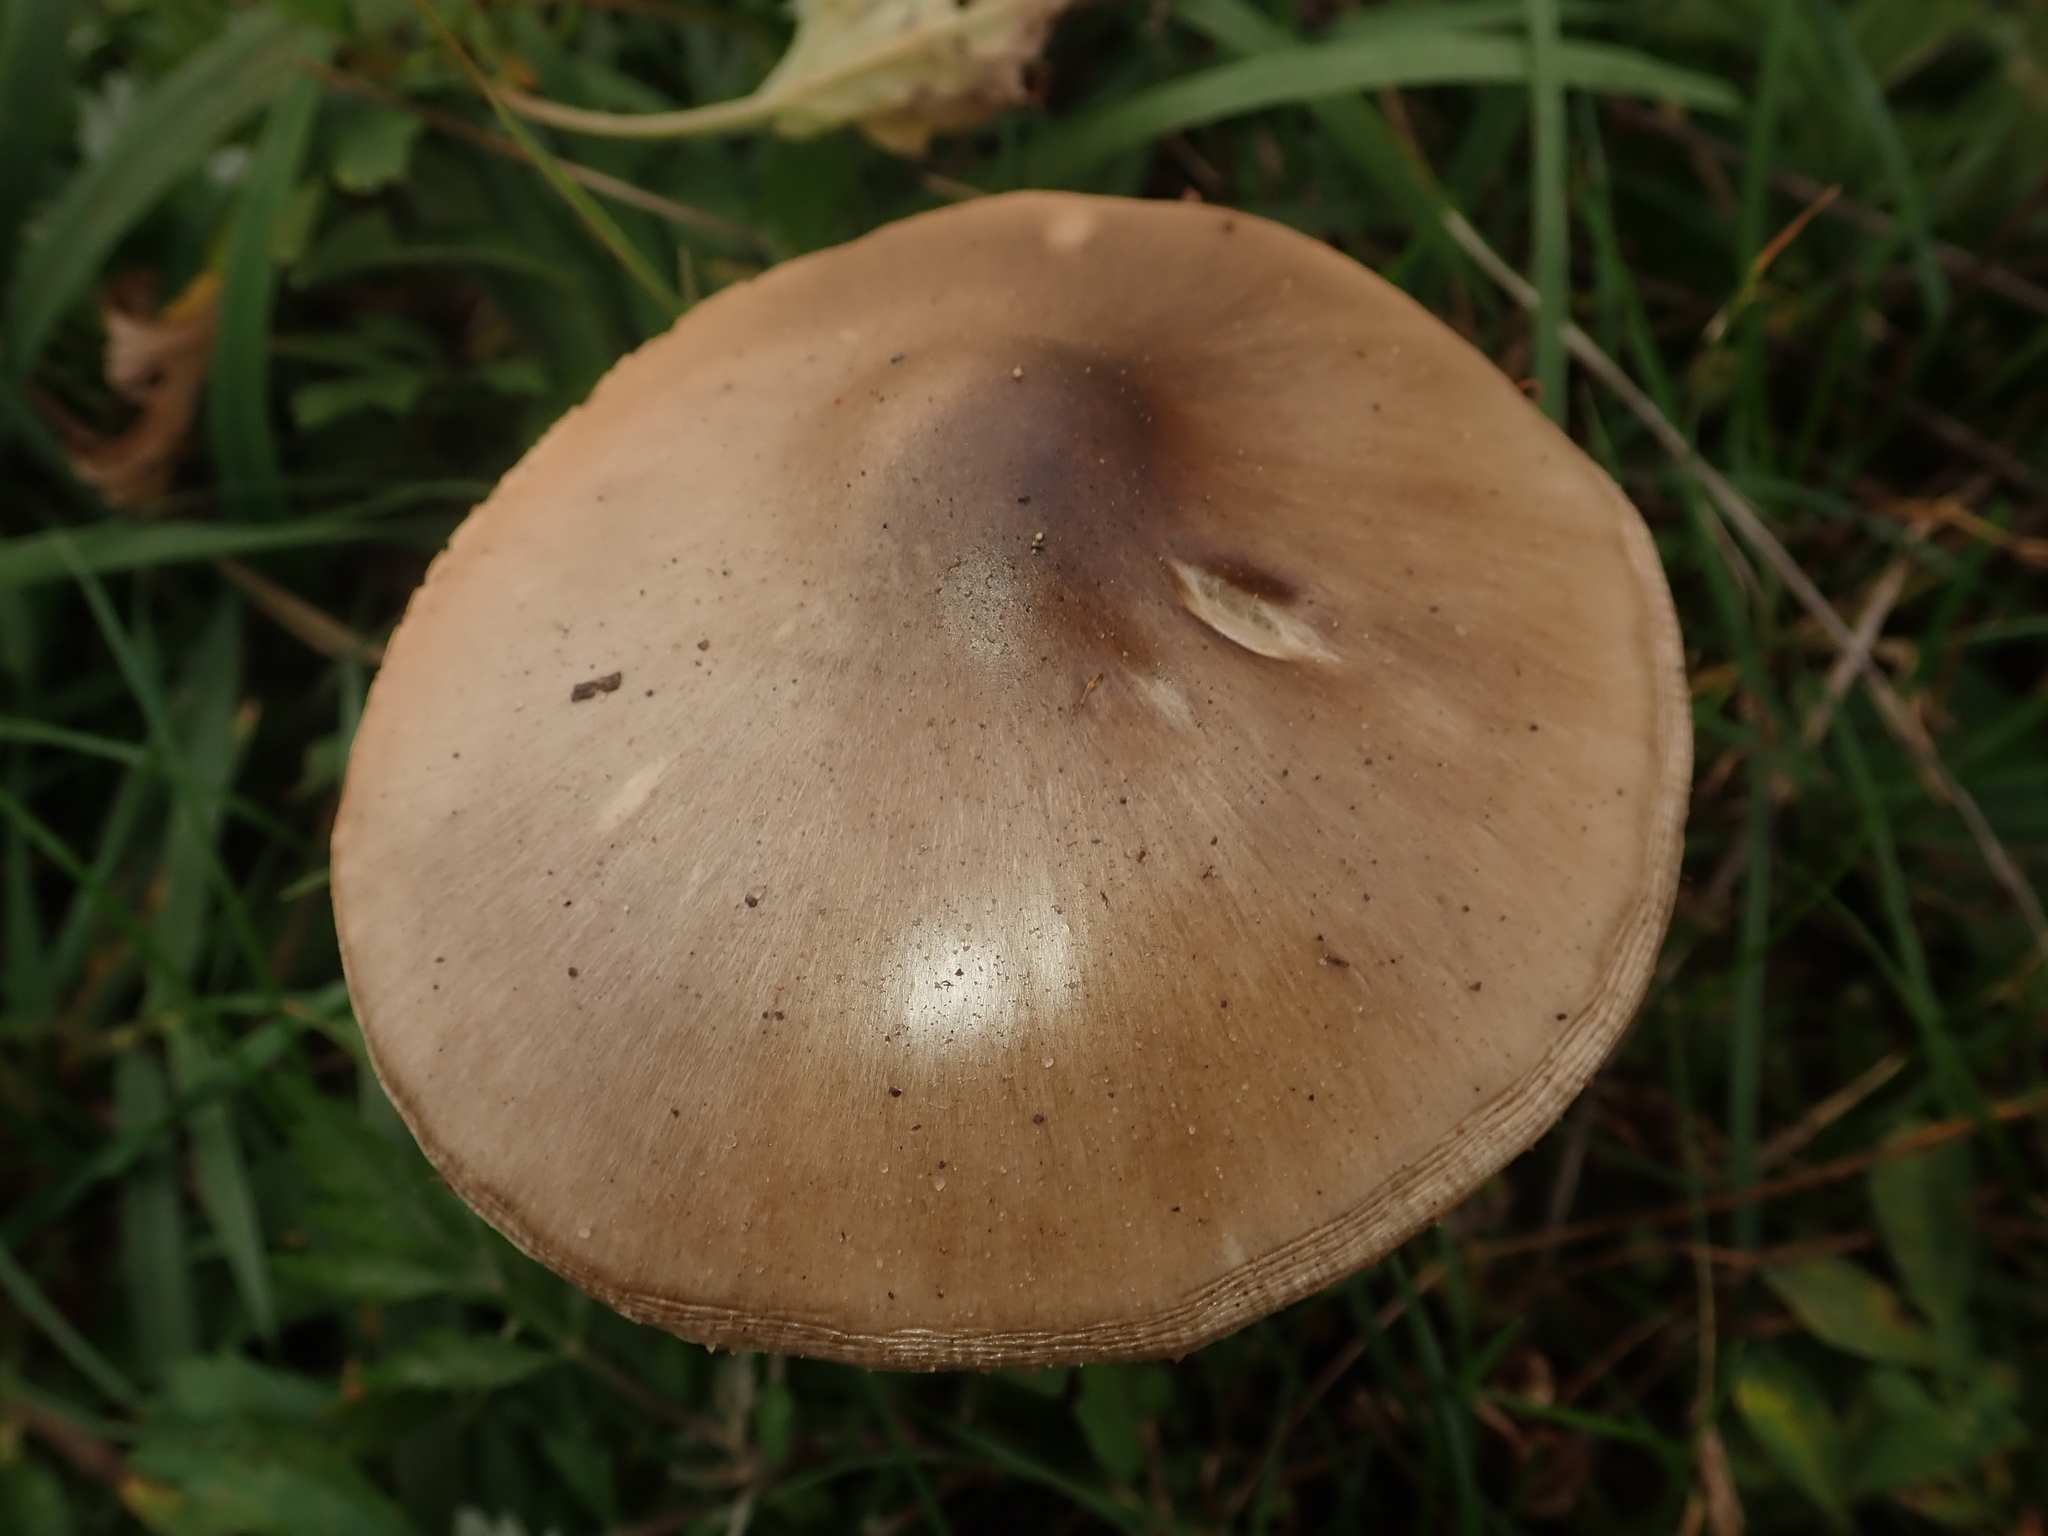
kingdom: Fungi
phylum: Basidiomycota
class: Agaricomycetes
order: Agaricales
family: Pluteaceae
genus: Volvopluteus
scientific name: Volvopluteus gloiocephalus
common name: Stubble rosegill
